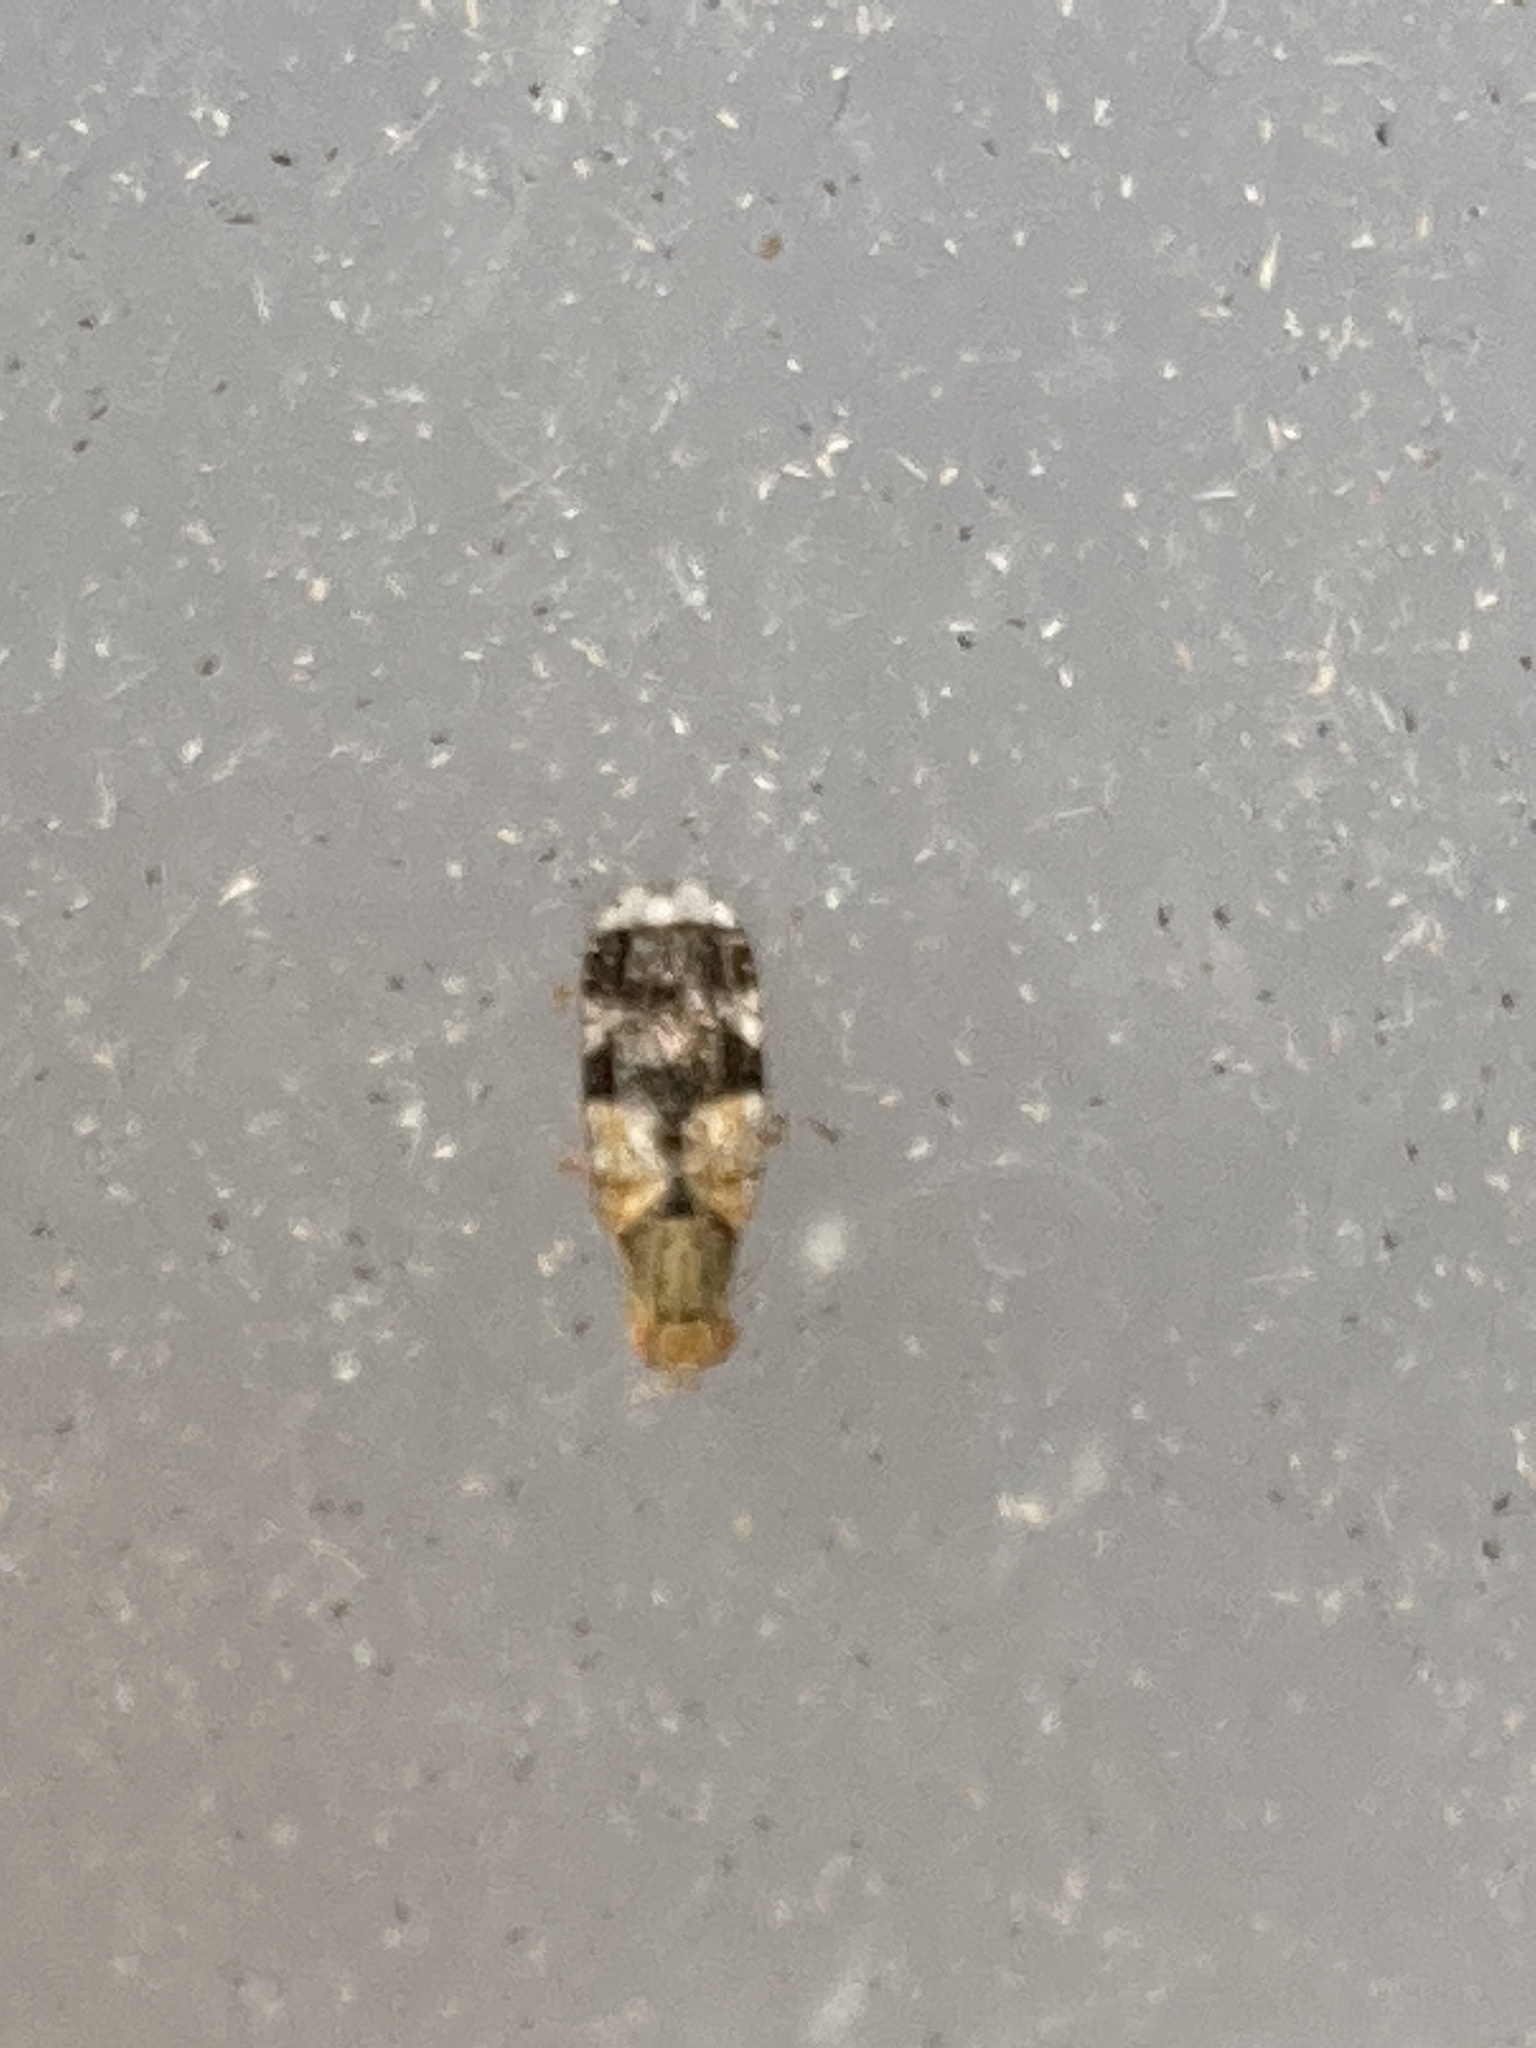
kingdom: Animalia
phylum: Arthropoda
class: Insecta
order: Diptera
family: Tephritidae
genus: Tephritis
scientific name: Tephritis formosa
